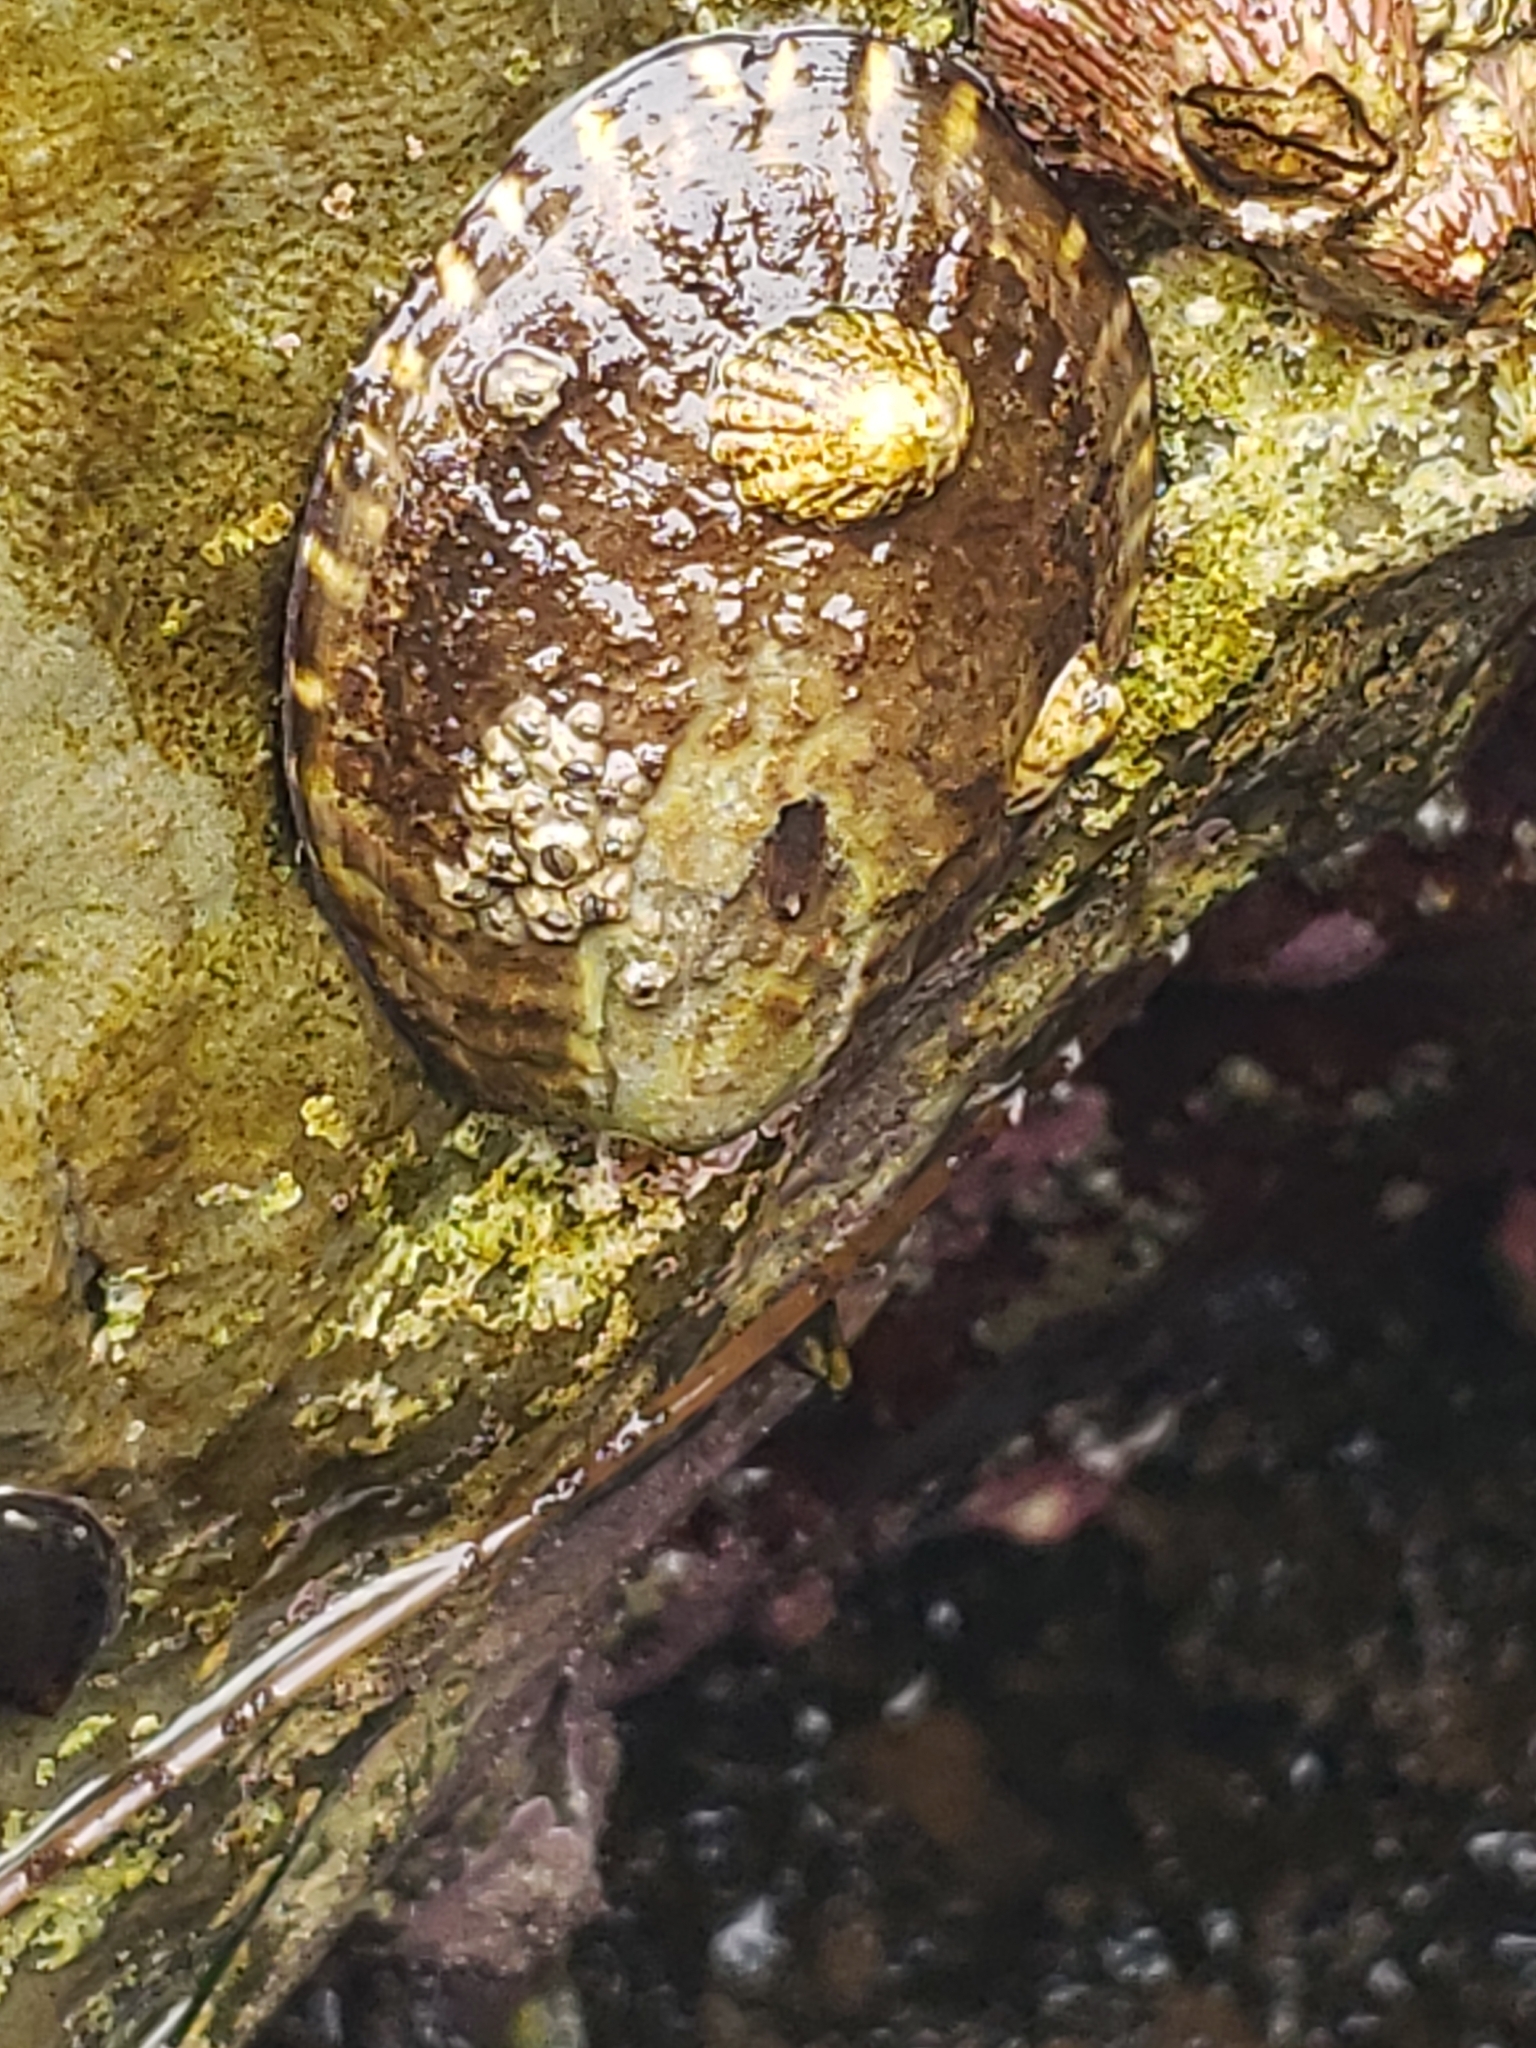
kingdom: Animalia
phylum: Mollusca
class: Gastropoda
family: Lottiidae
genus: Lottia
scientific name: Lottia gigantea
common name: Owl limpet
